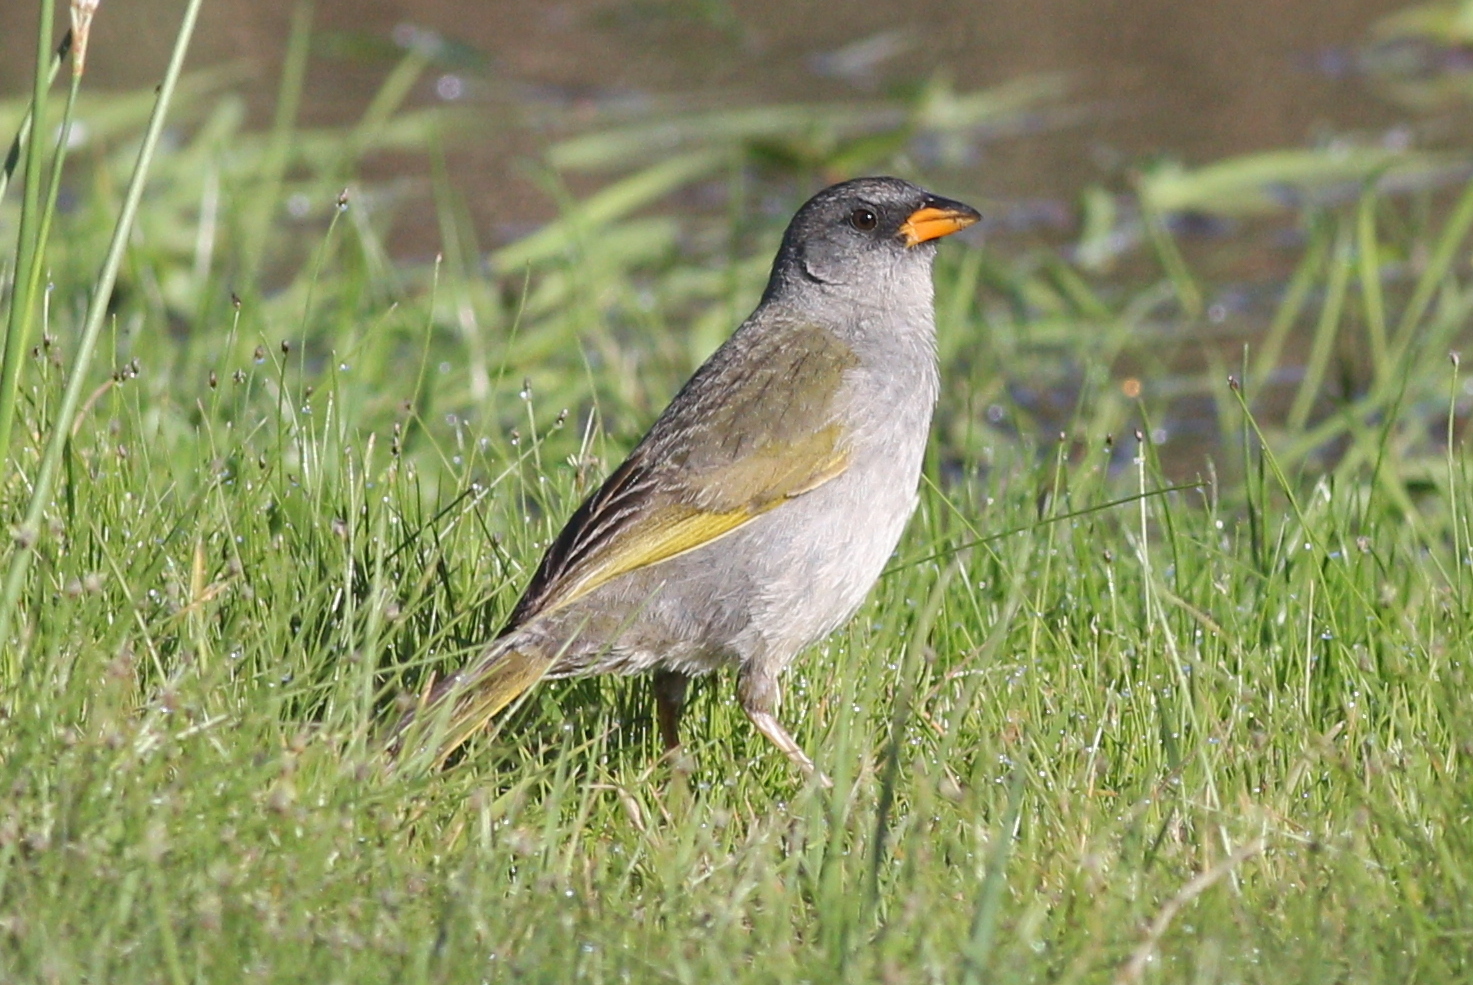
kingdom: Animalia
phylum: Chordata
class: Aves
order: Passeriformes
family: Thraupidae
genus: Embernagra
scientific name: Embernagra platensis
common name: Pampa finch
